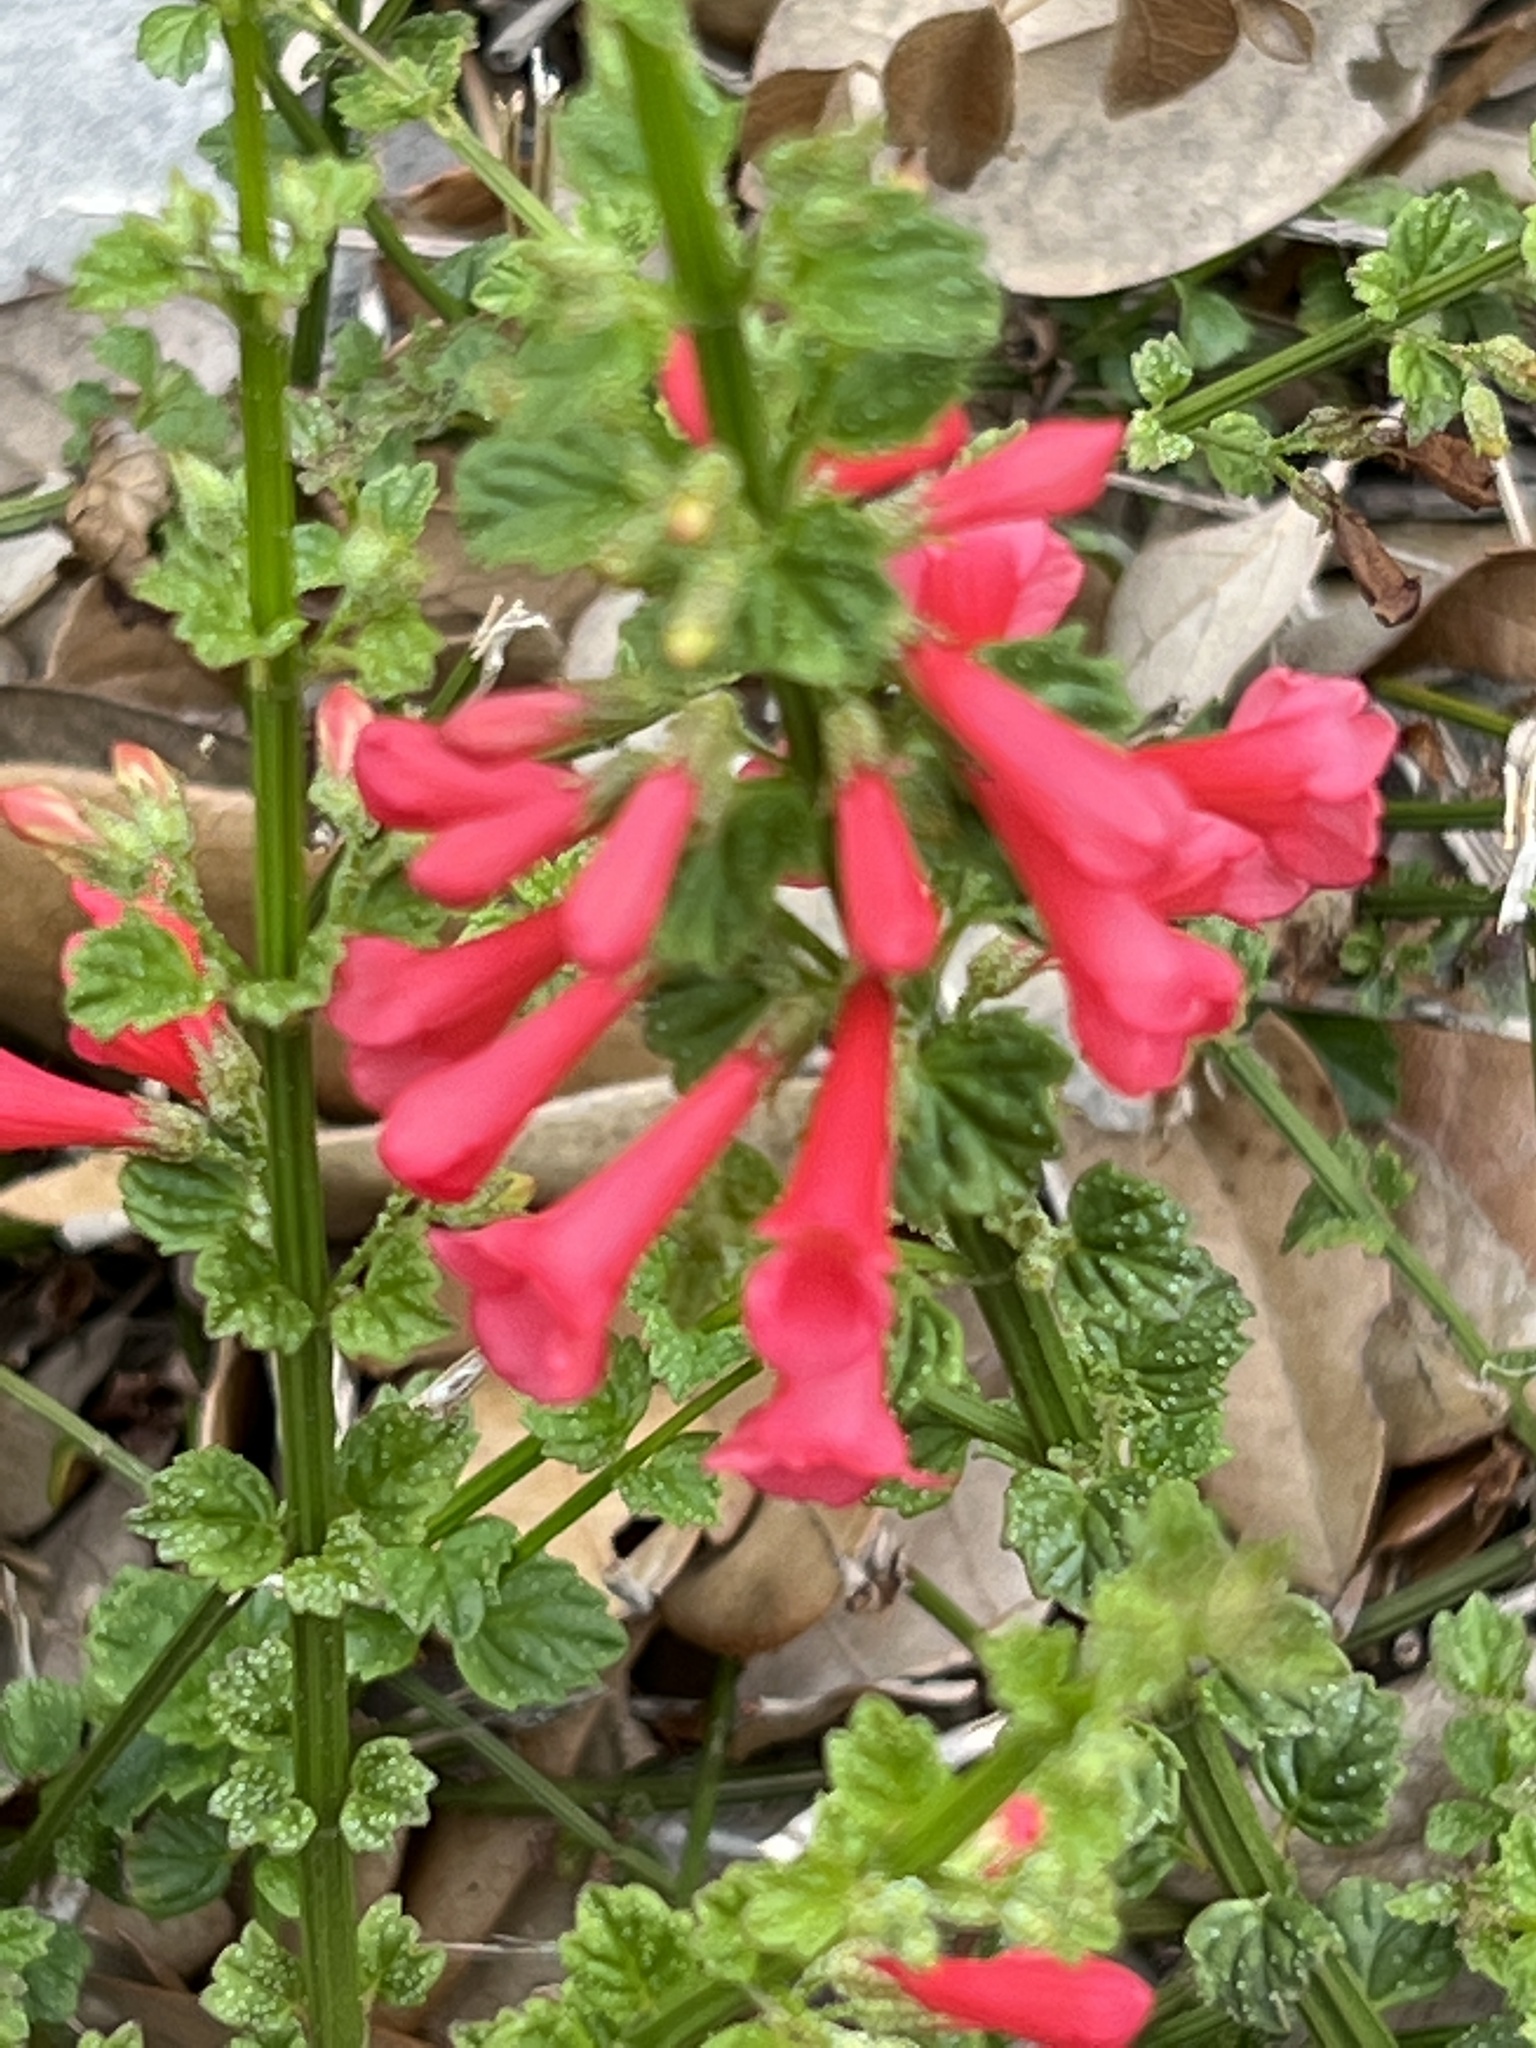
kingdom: Plantae
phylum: Tracheophyta
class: Magnoliopsida
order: Lamiales
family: Plantaginaceae
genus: Russelia
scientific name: Russelia equisetiformis
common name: Fountainbush
